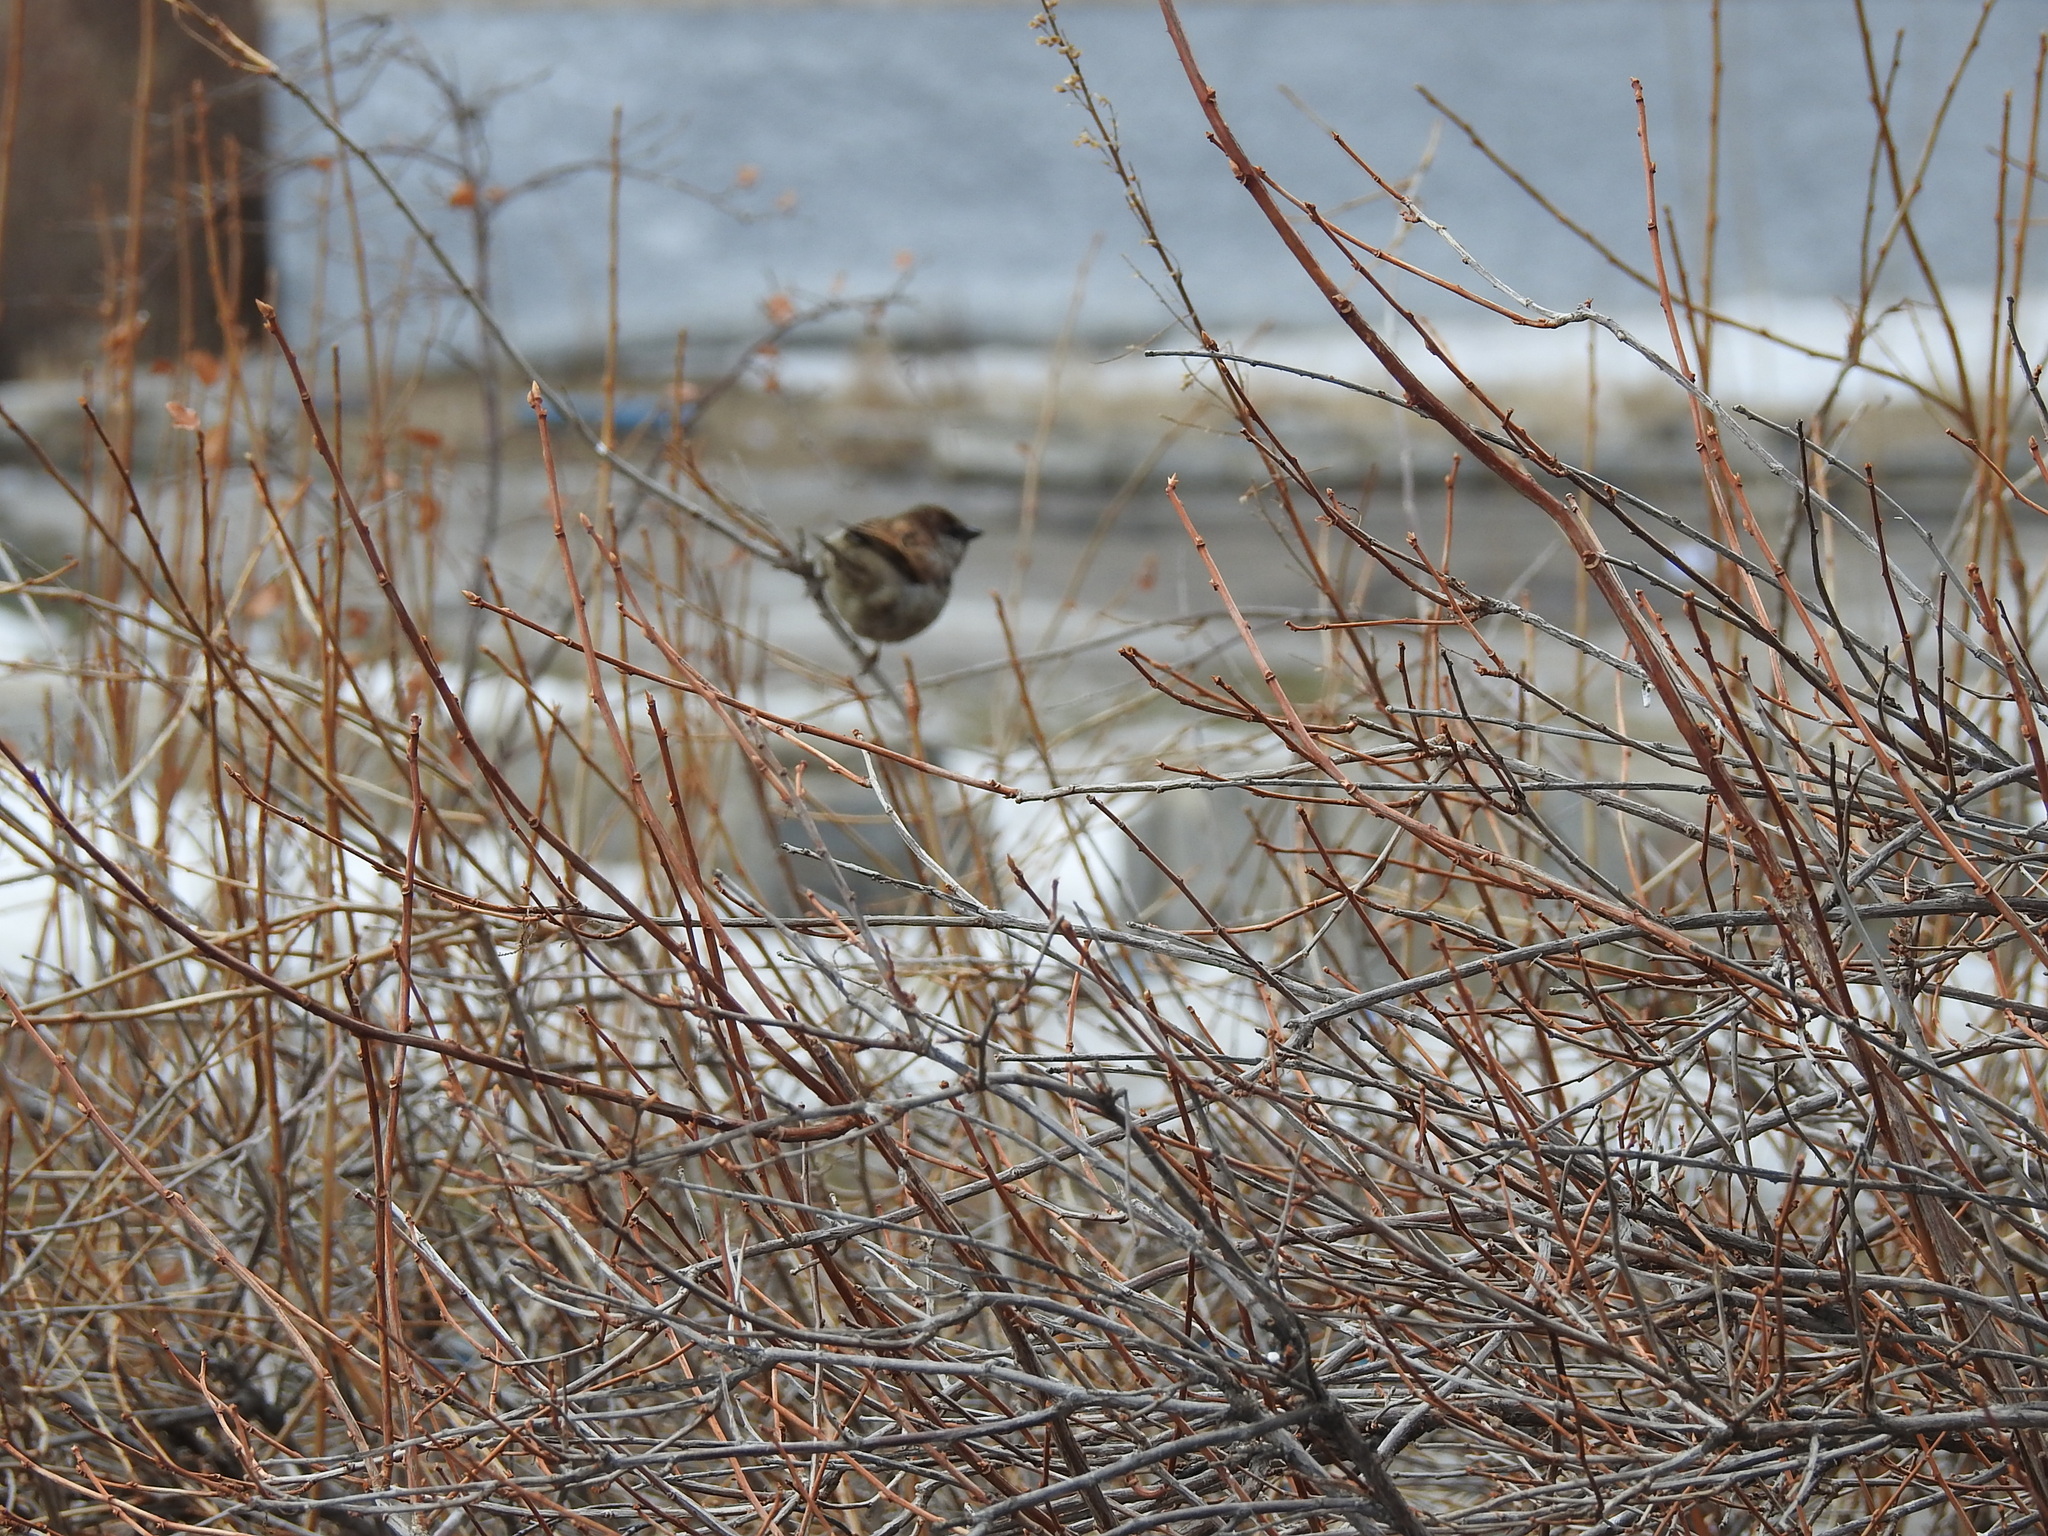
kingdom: Animalia
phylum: Chordata
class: Aves
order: Passeriformes
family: Passeridae
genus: Passer
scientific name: Passer domesticus
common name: House sparrow
